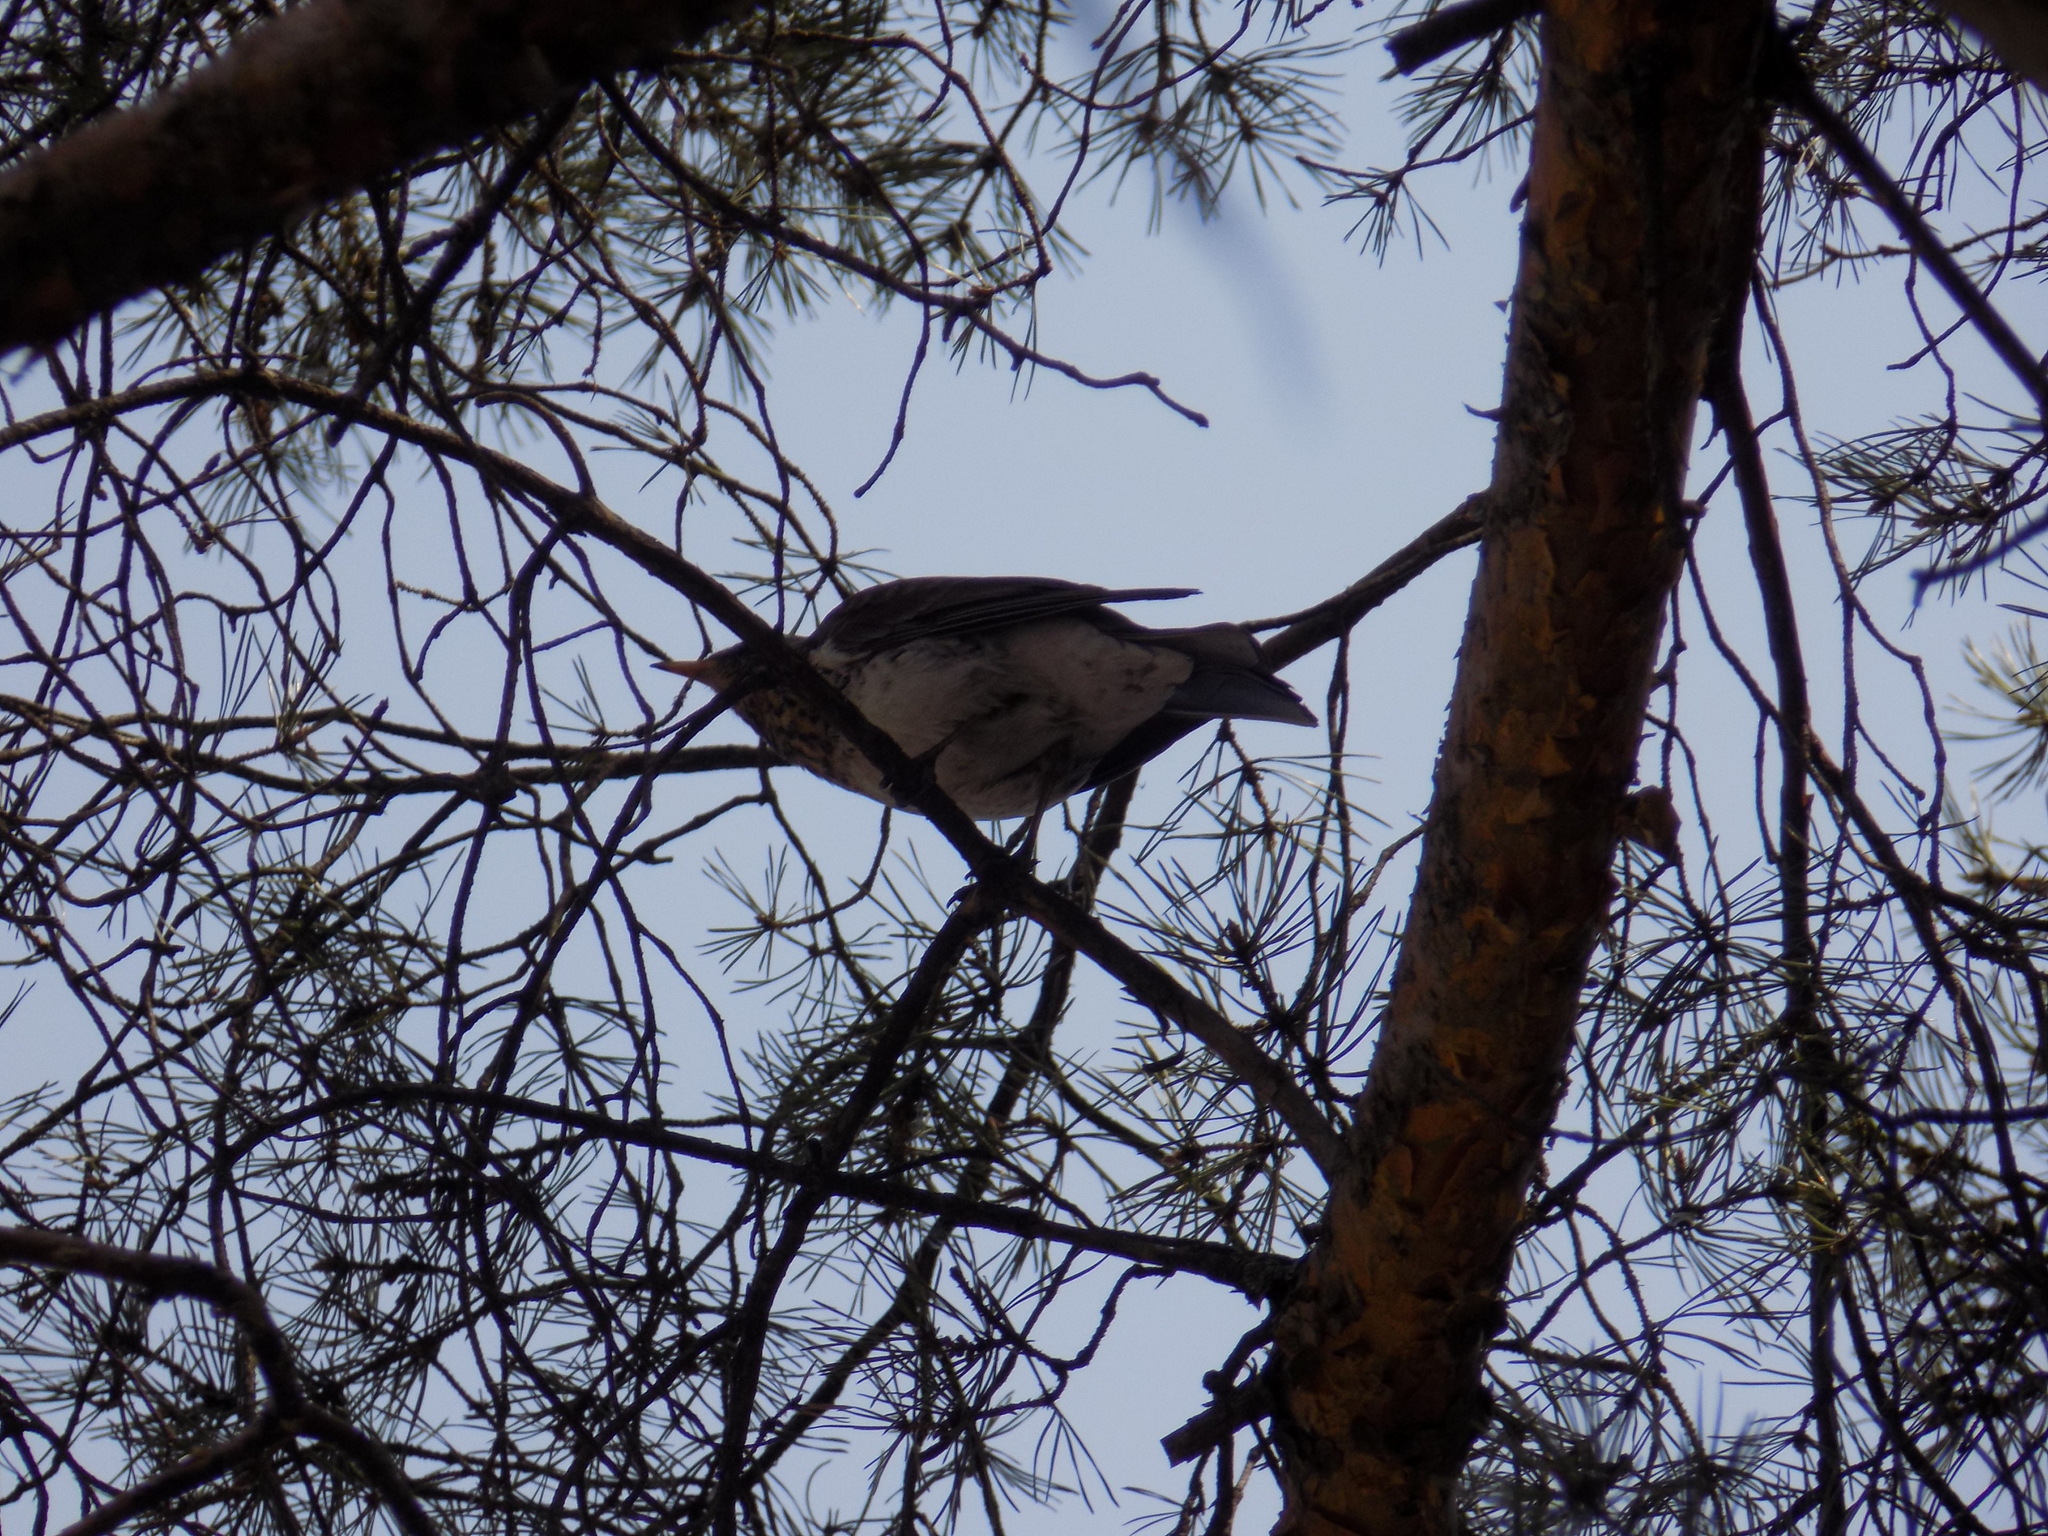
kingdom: Animalia
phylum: Chordata
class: Aves
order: Passeriformes
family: Turdidae
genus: Turdus
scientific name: Turdus pilaris
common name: Fieldfare
